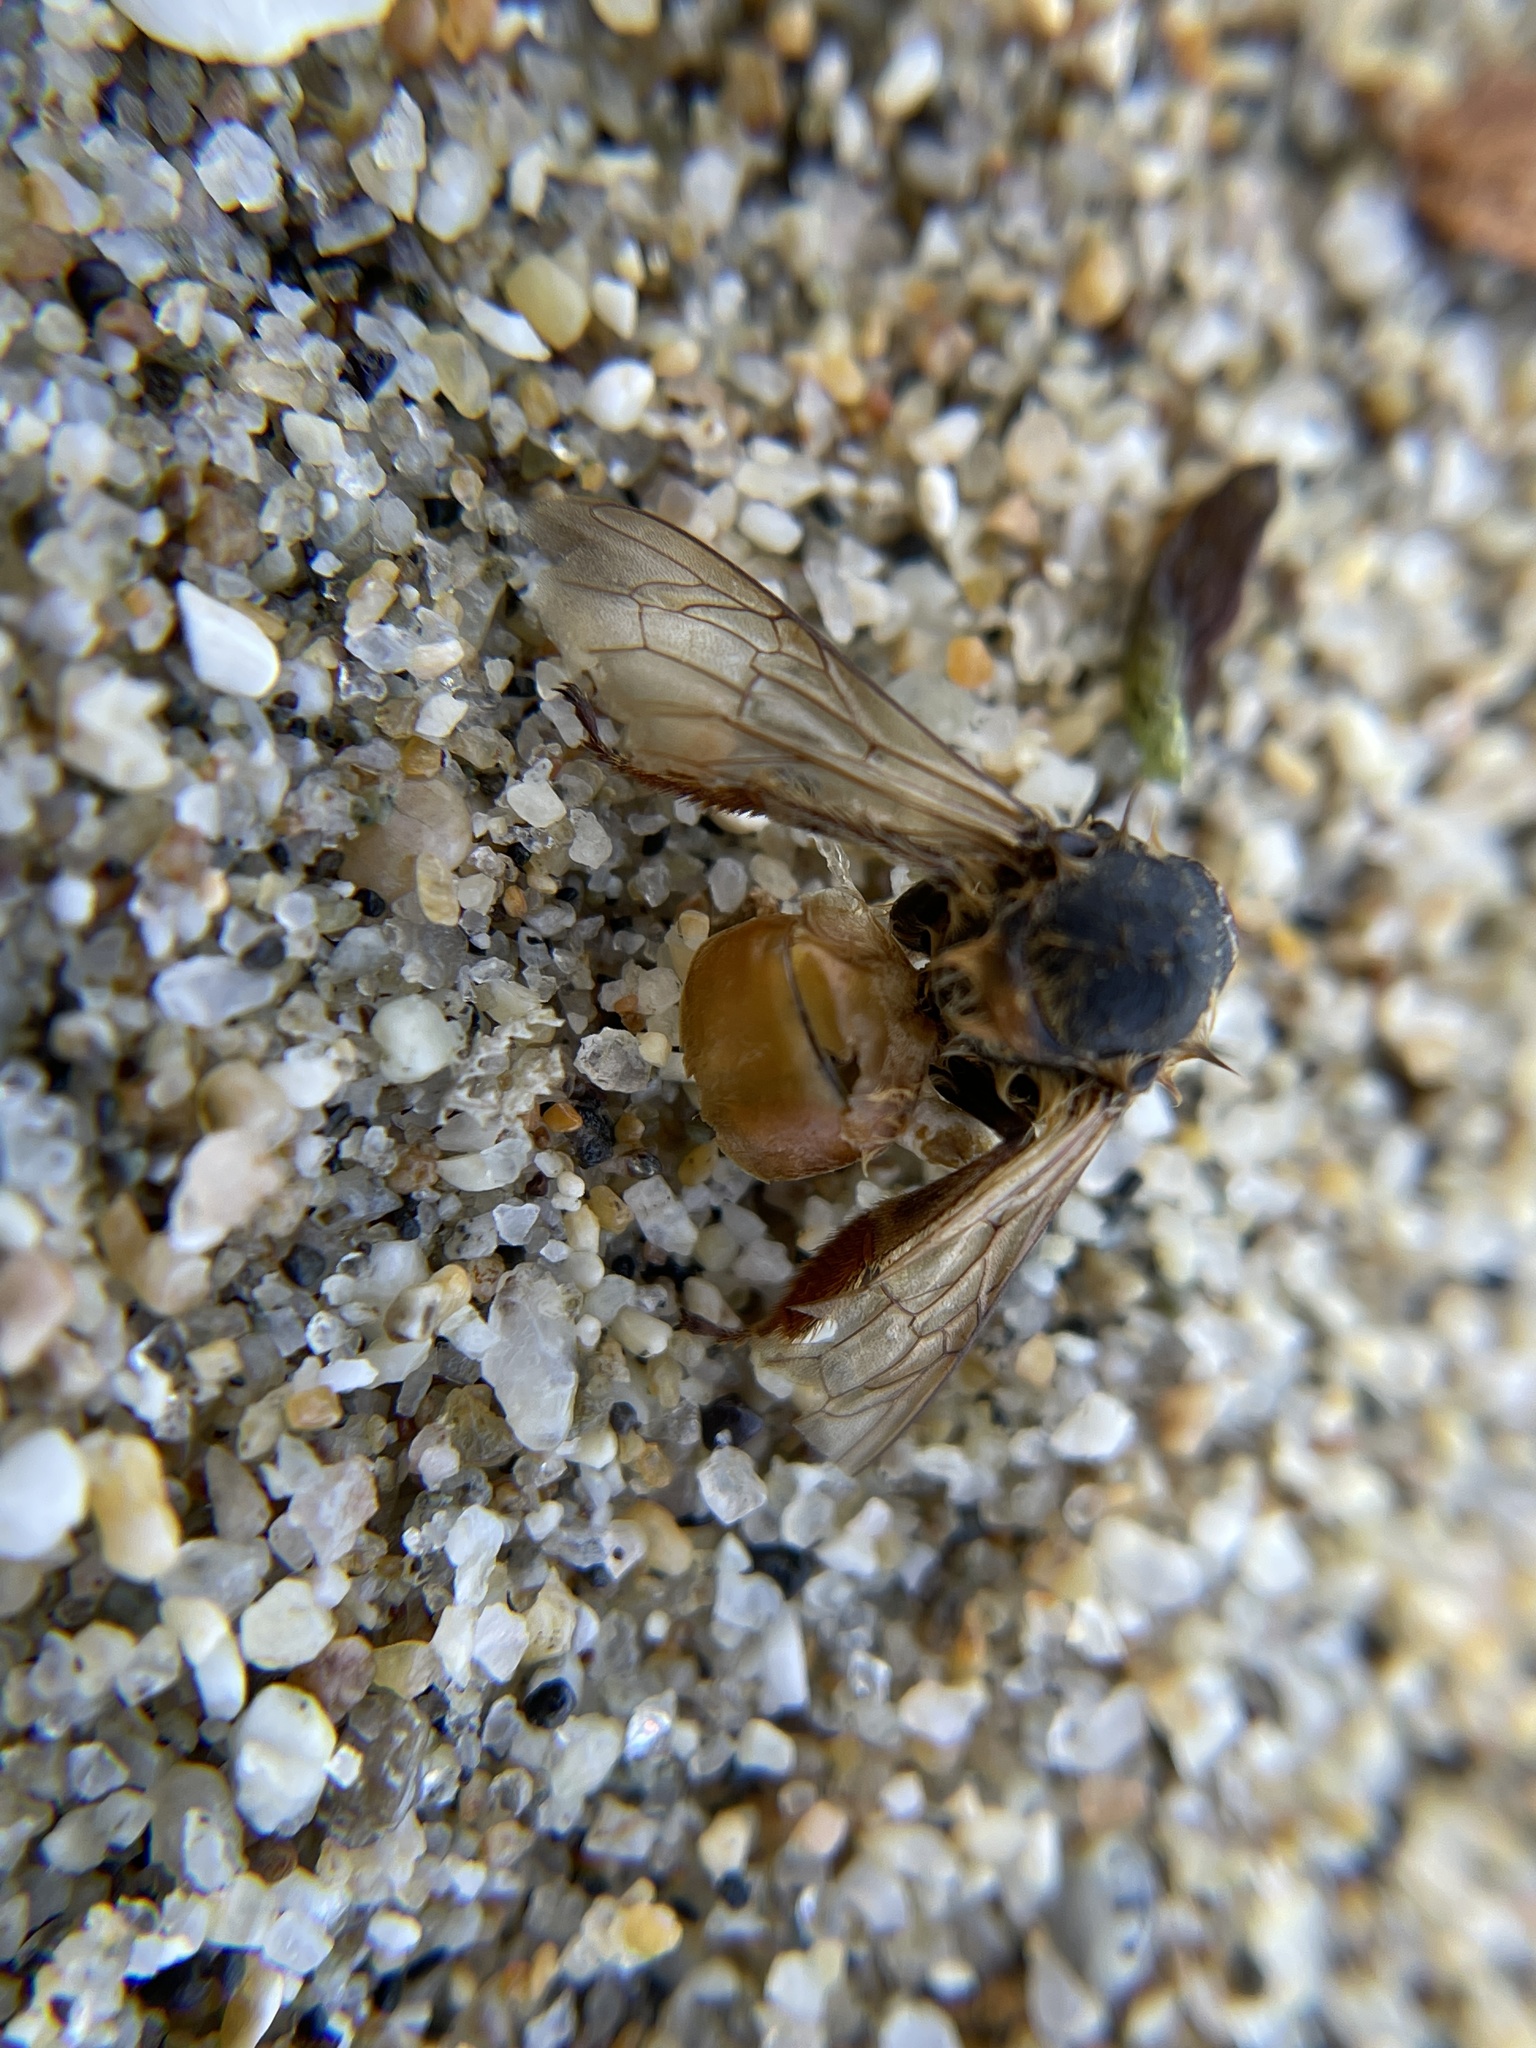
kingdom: Animalia
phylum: Arthropoda
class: Insecta
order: Hymenoptera
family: Apidae
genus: Apis
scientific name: Apis mellifera
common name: Honey bee
